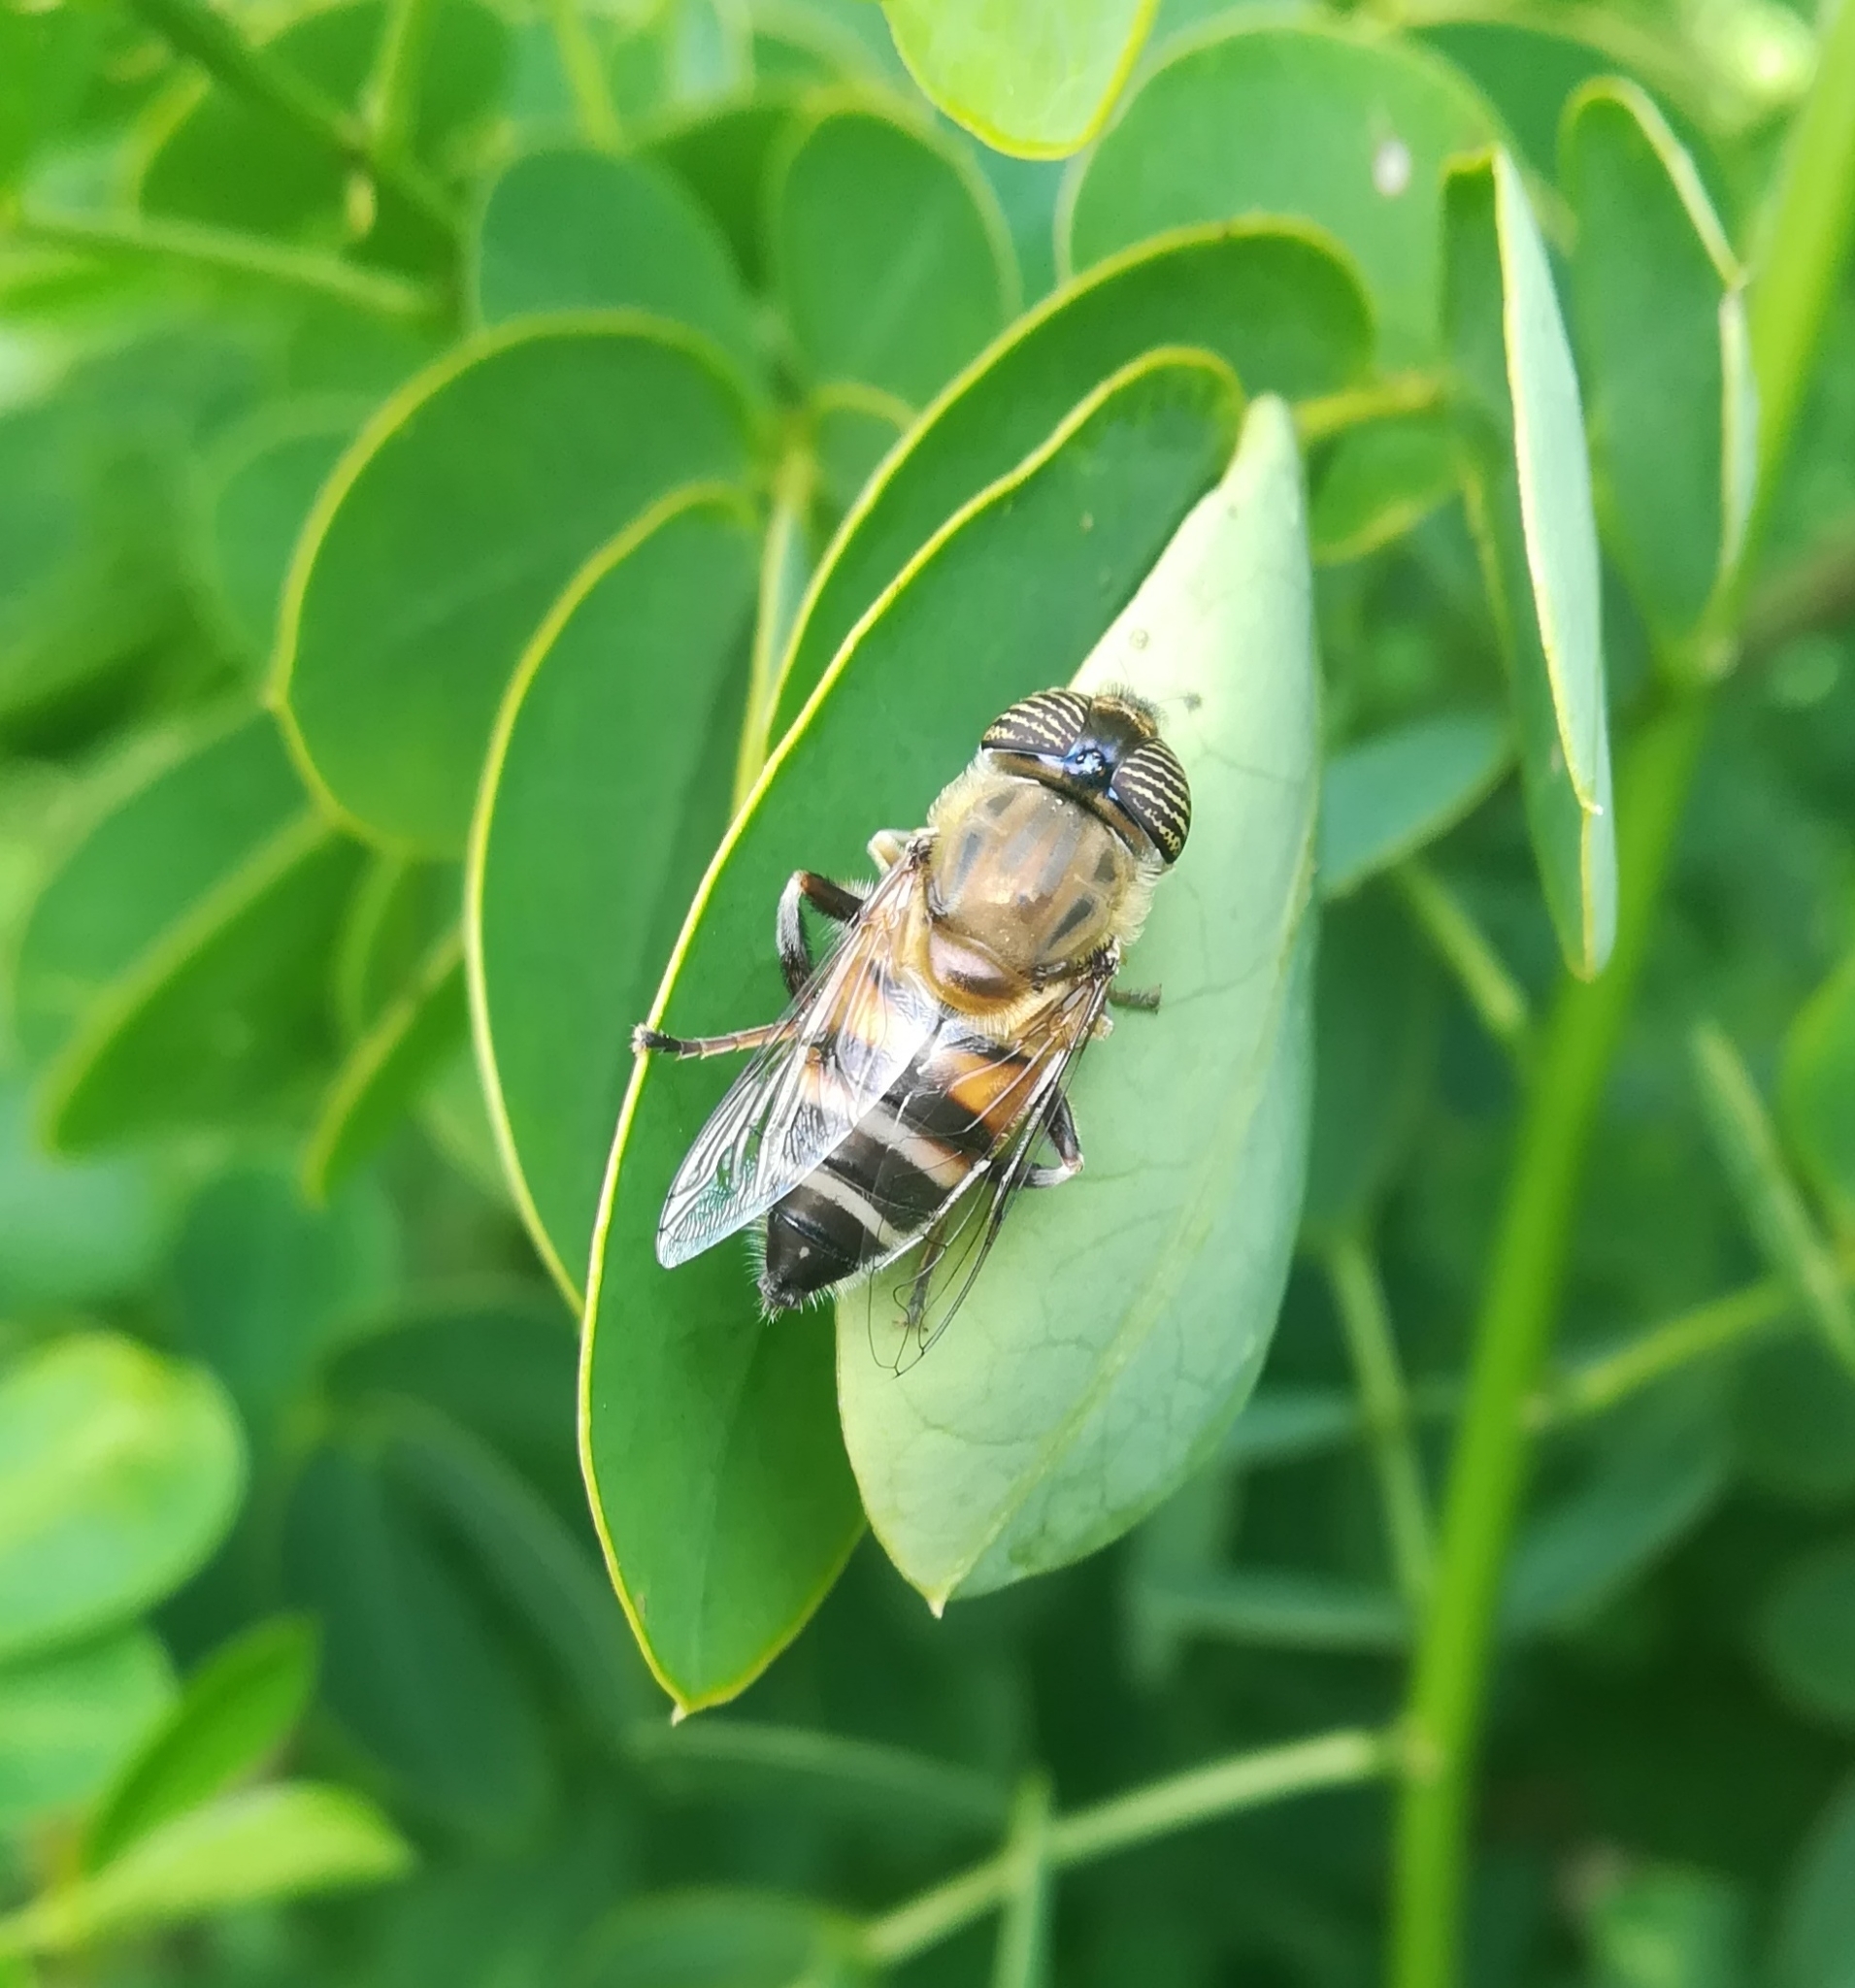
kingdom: Animalia
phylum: Arthropoda
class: Insecta
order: Diptera
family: Syrphidae
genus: Eristalinus
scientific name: Eristalinus taeniops
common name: Syrphid fly
